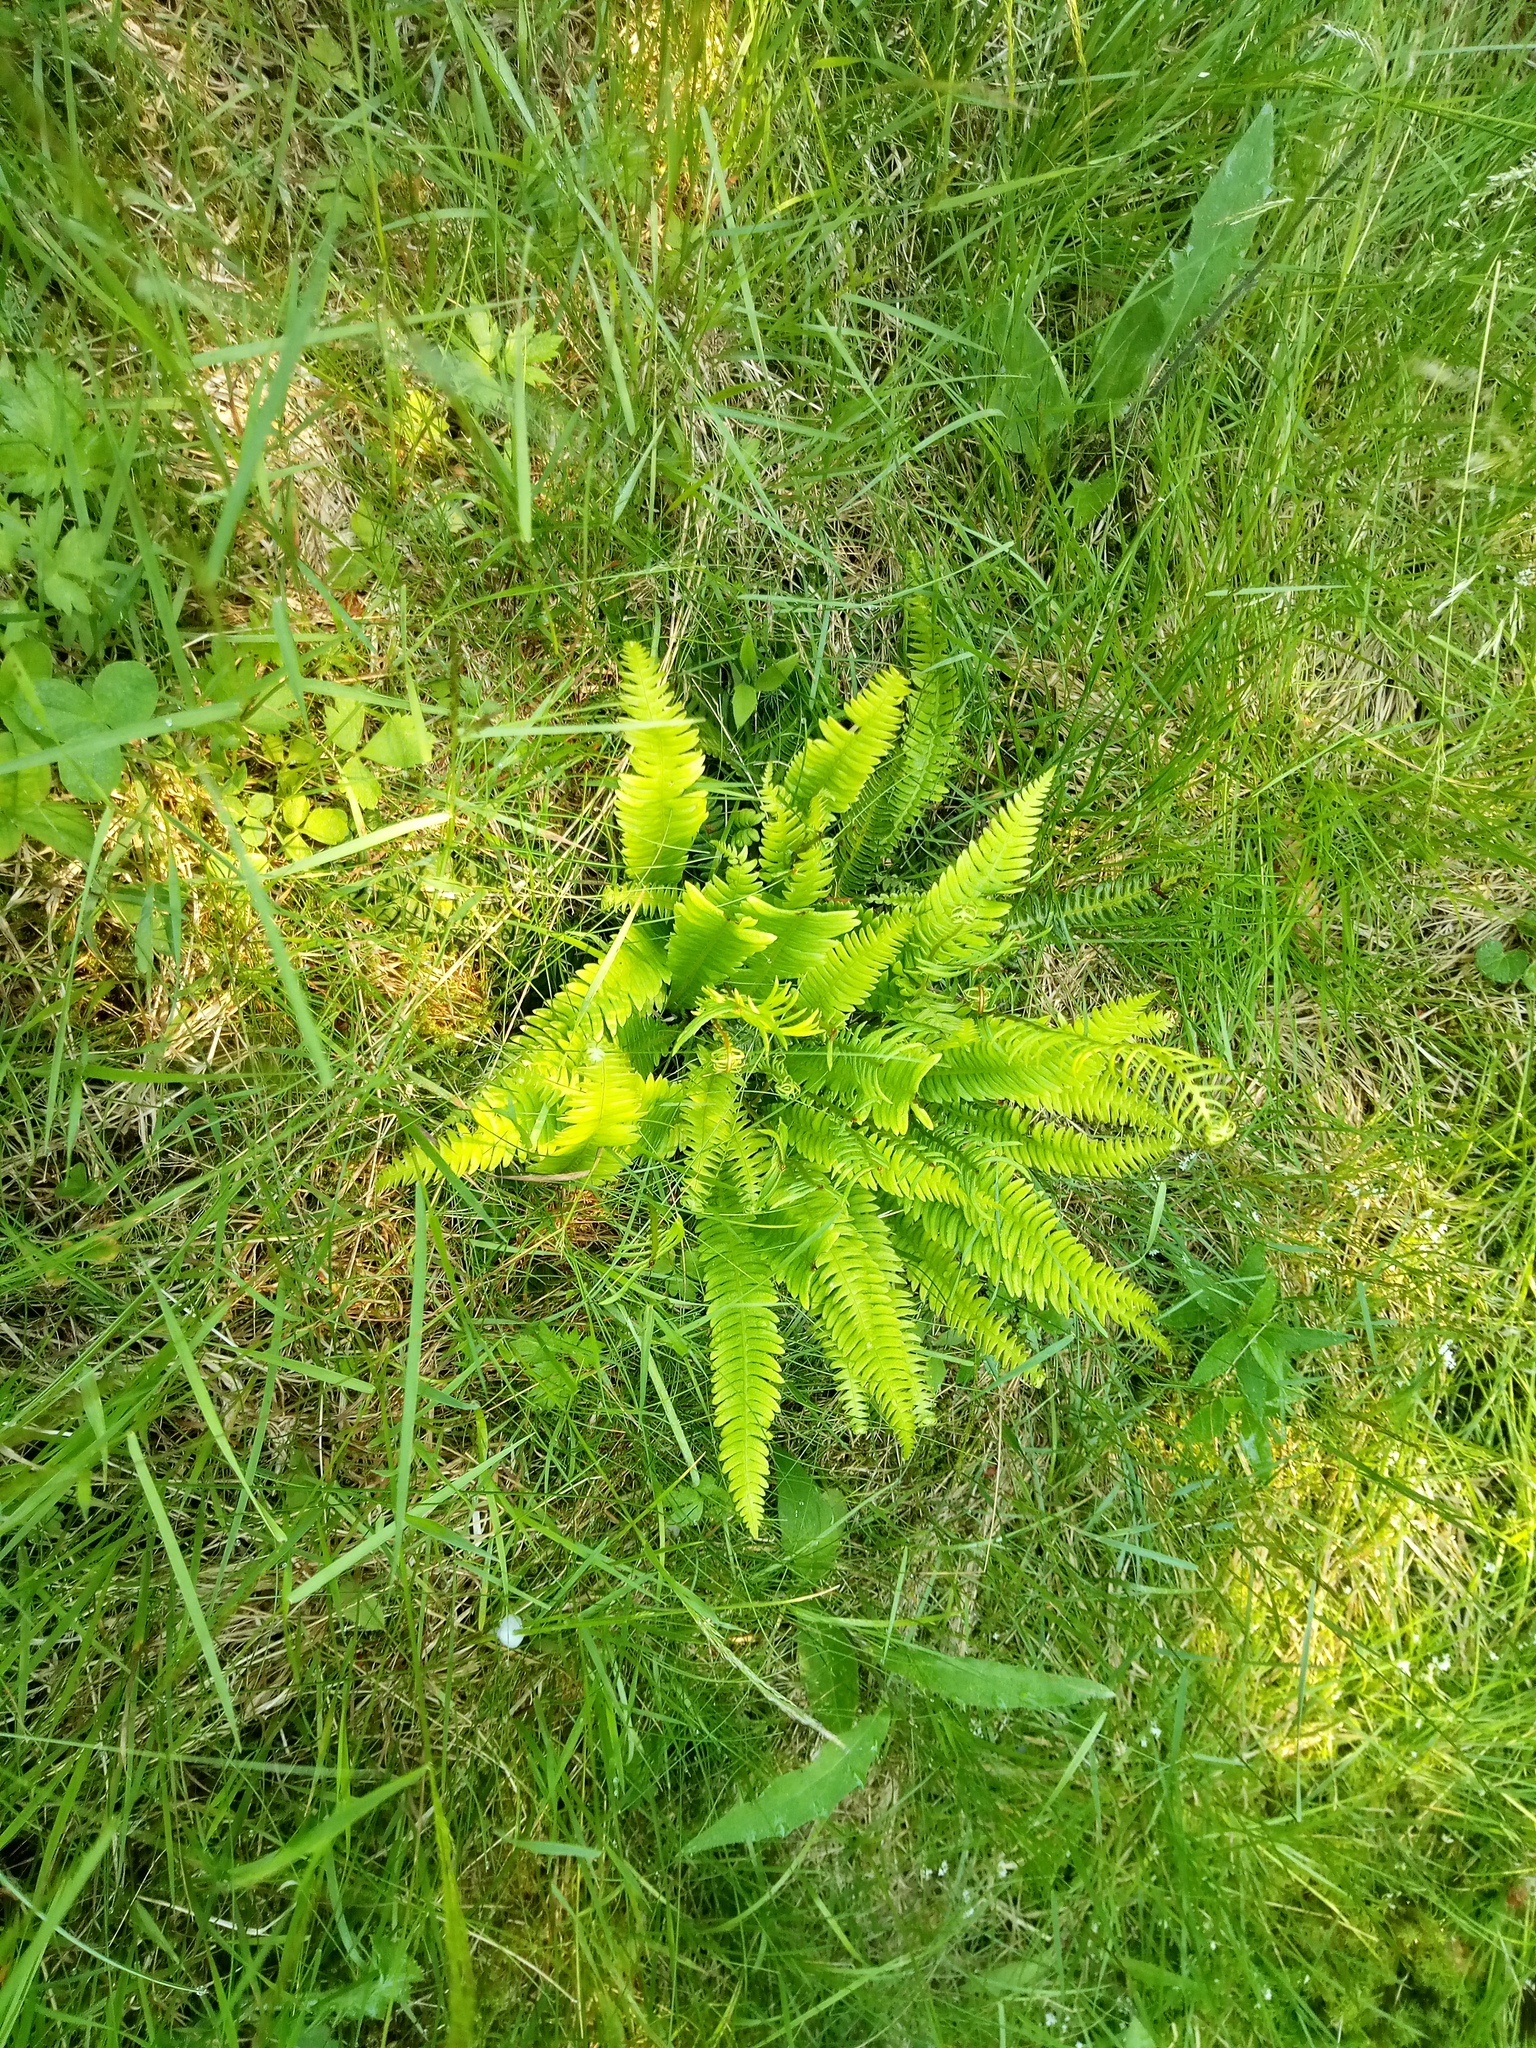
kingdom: Plantae
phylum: Tracheophyta
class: Polypodiopsida
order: Polypodiales
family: Blechnaceae
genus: Struthiopteris
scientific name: Struthiopteris spicant
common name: Deer fern
